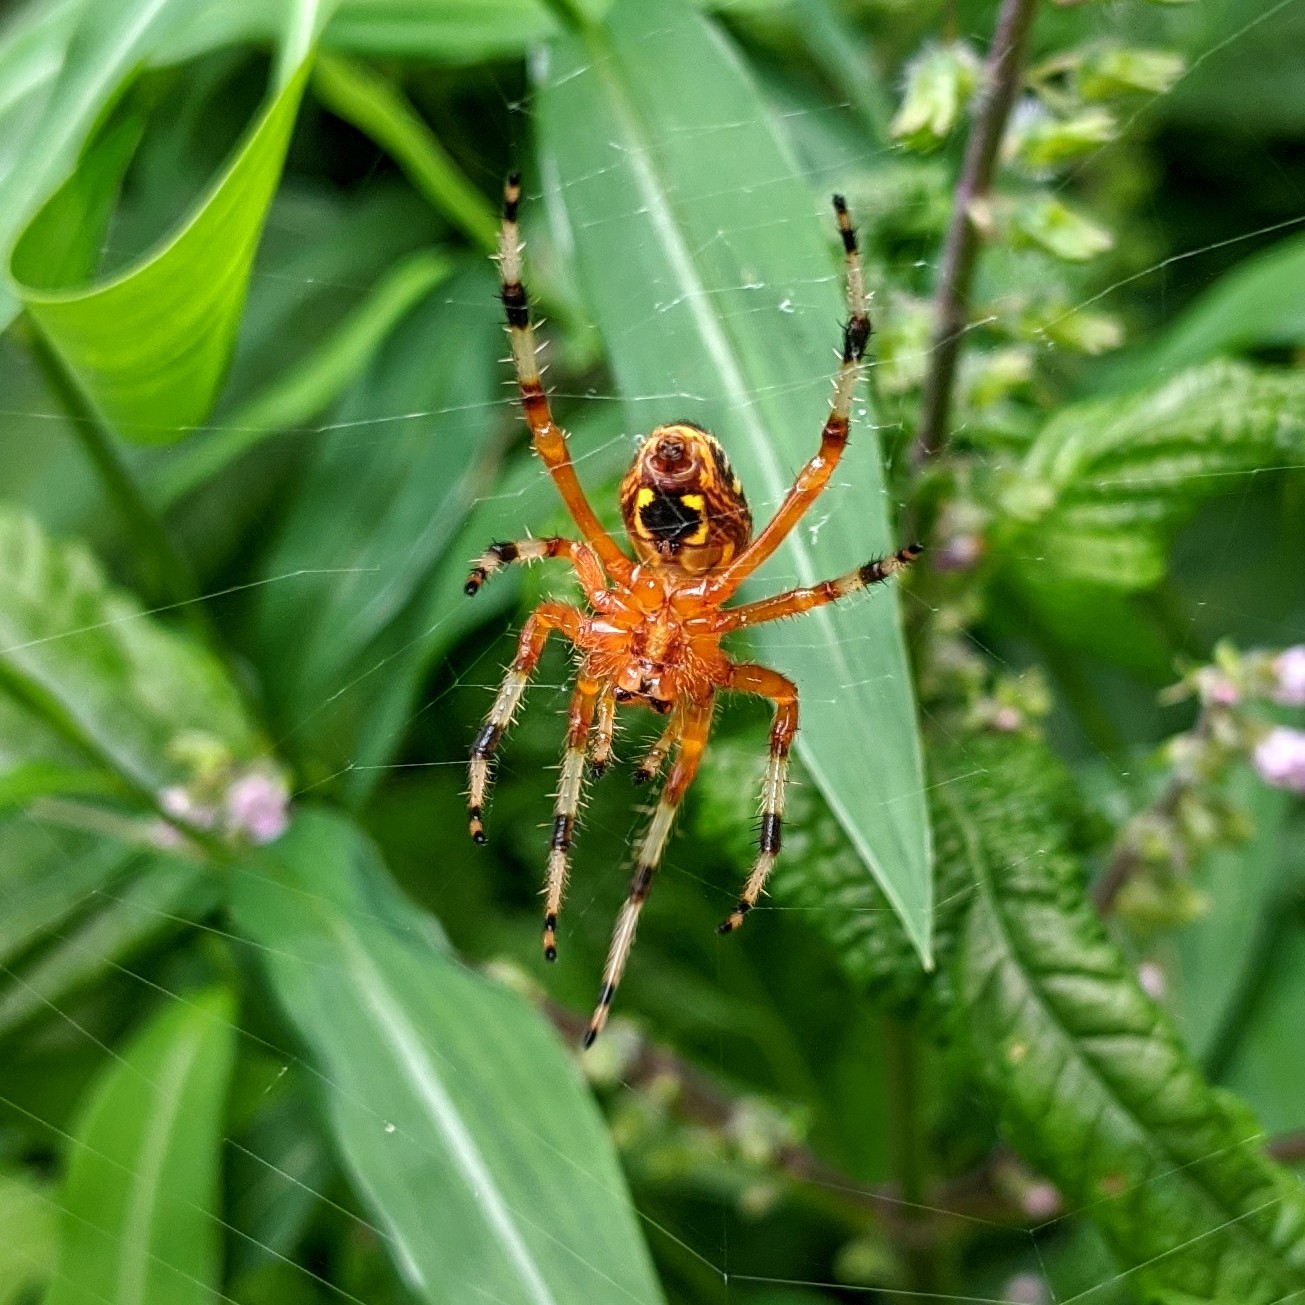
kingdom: Animalia
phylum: Arthropoda
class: Arachnida
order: Araneae
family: Araneidae
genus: Araneus
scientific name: Araneus marmoreus
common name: Marbled orbweaver
